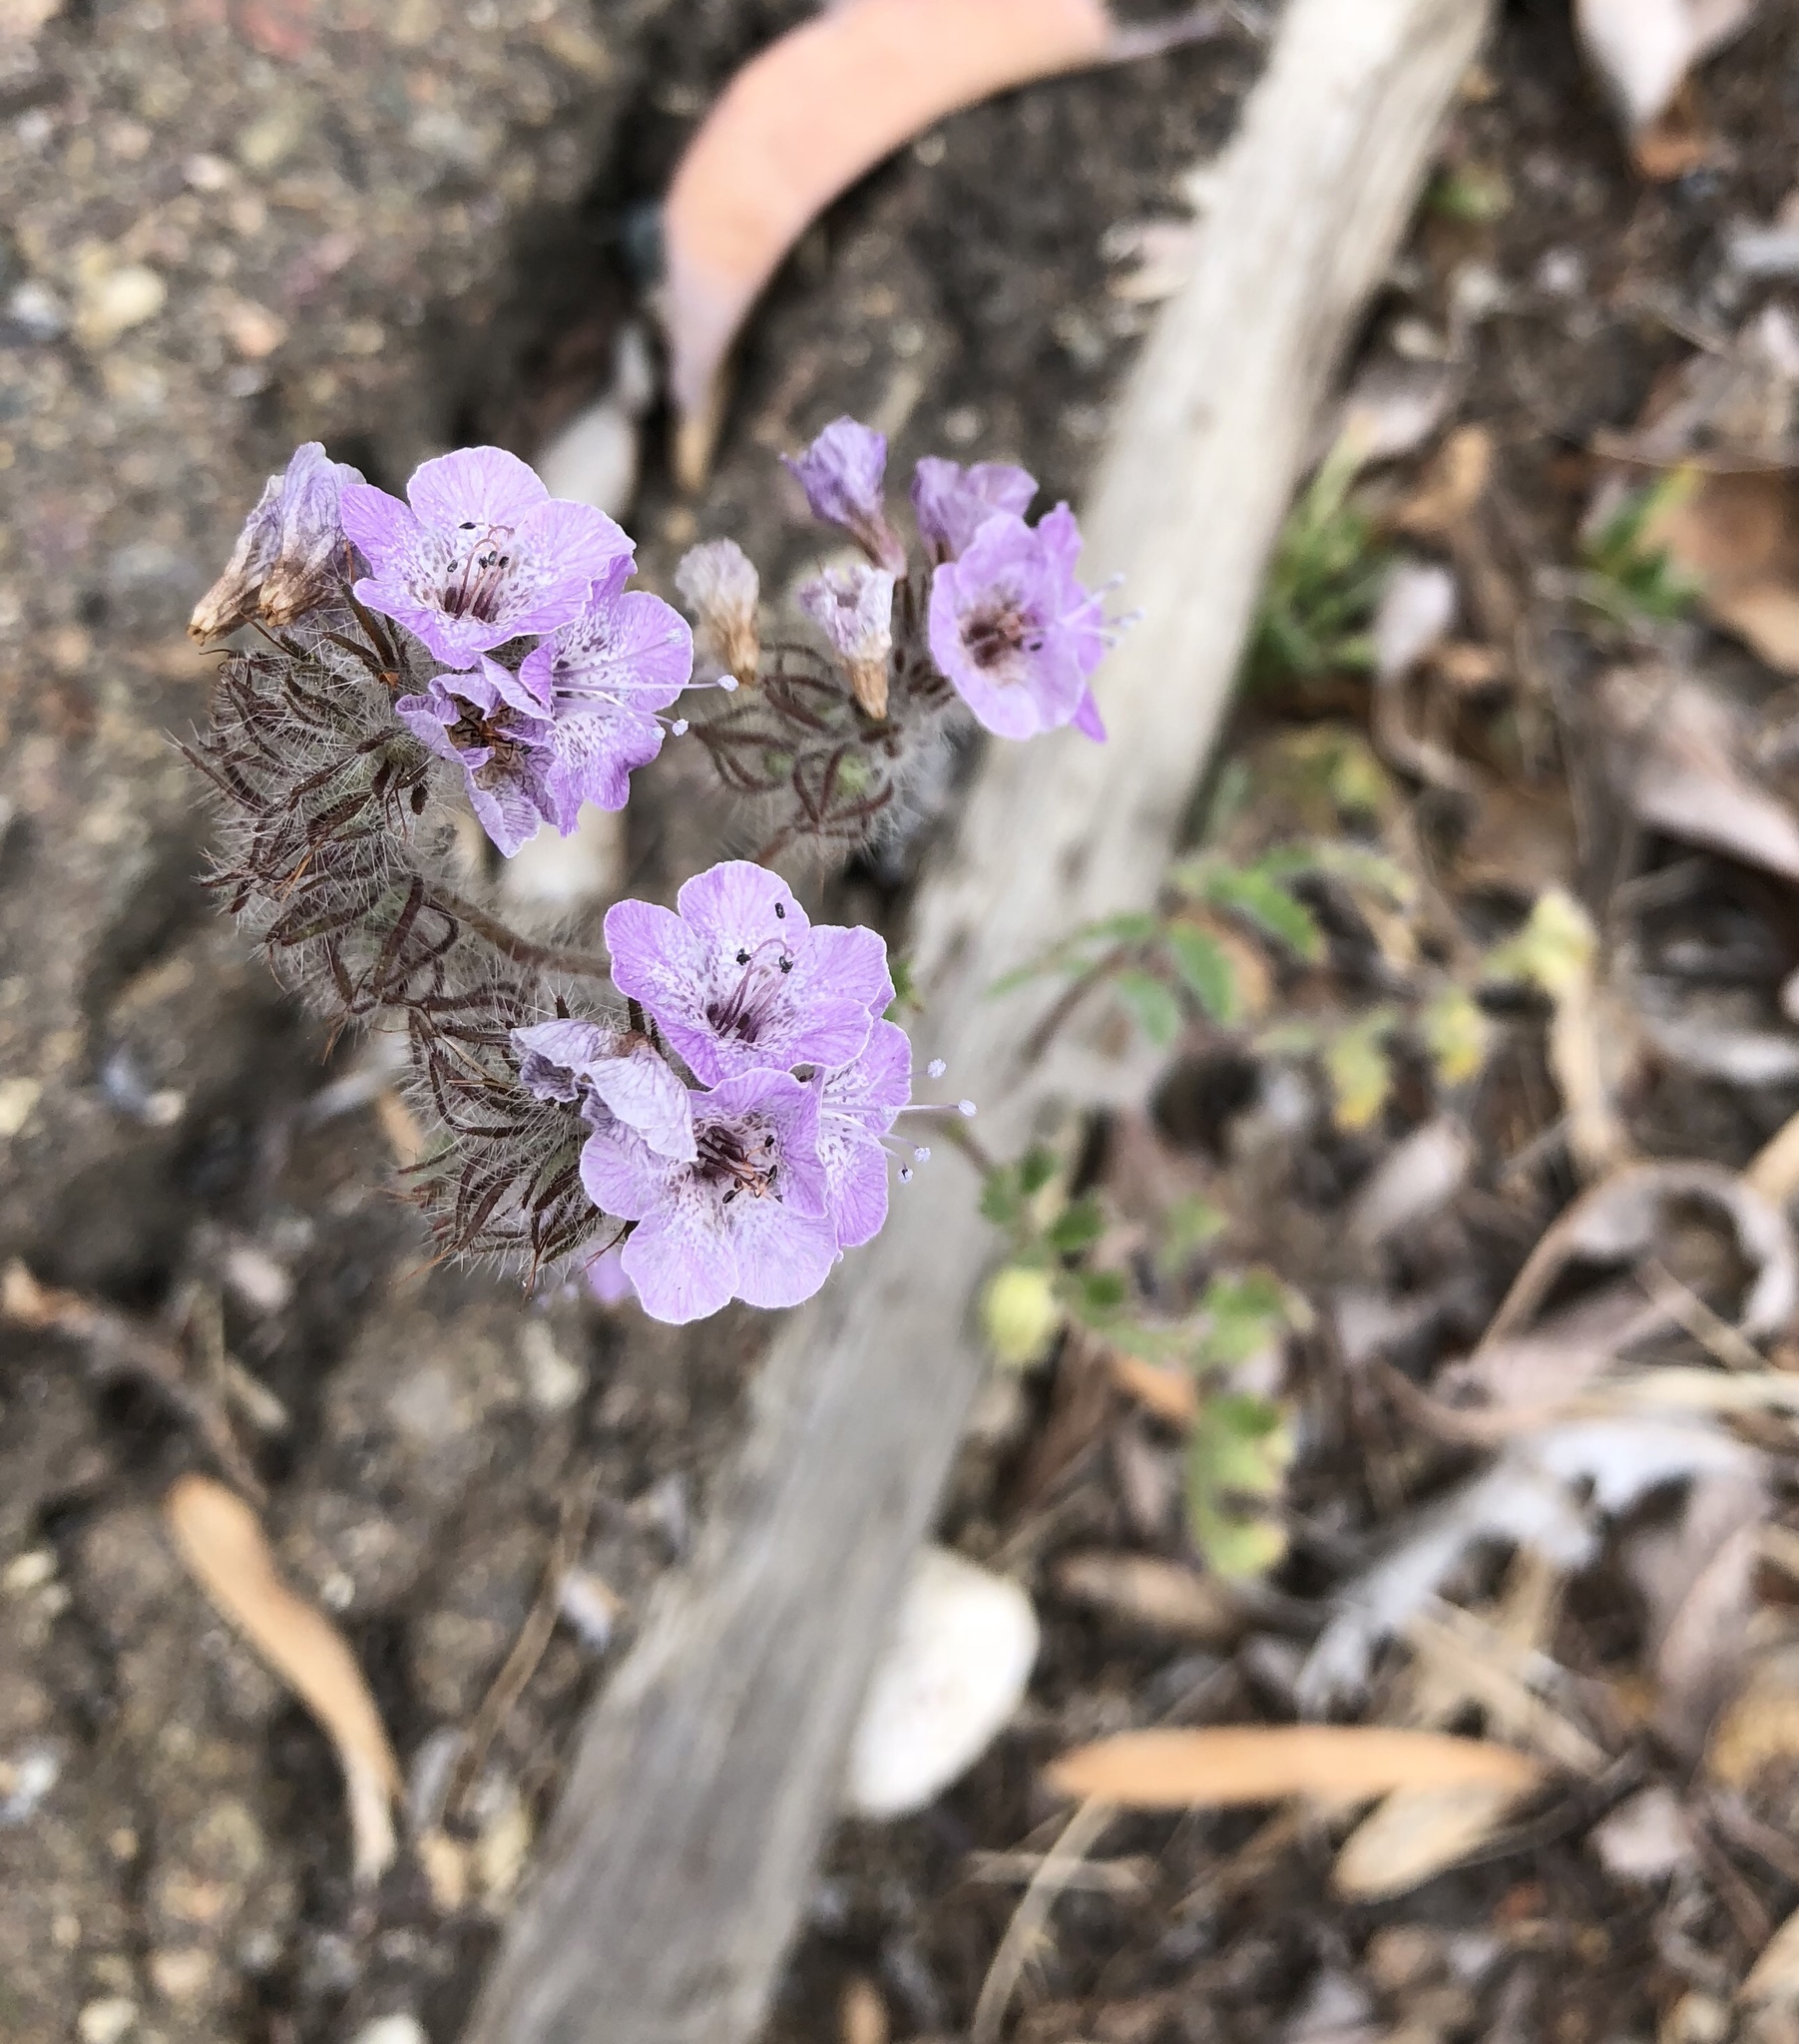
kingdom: Plantae
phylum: Tracheophyta
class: Magnoliopsida
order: Boraginales
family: Hydrophyllaceae
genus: Phacelia
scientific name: Phacelia cicutaria
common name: Caterpillar phacelia
